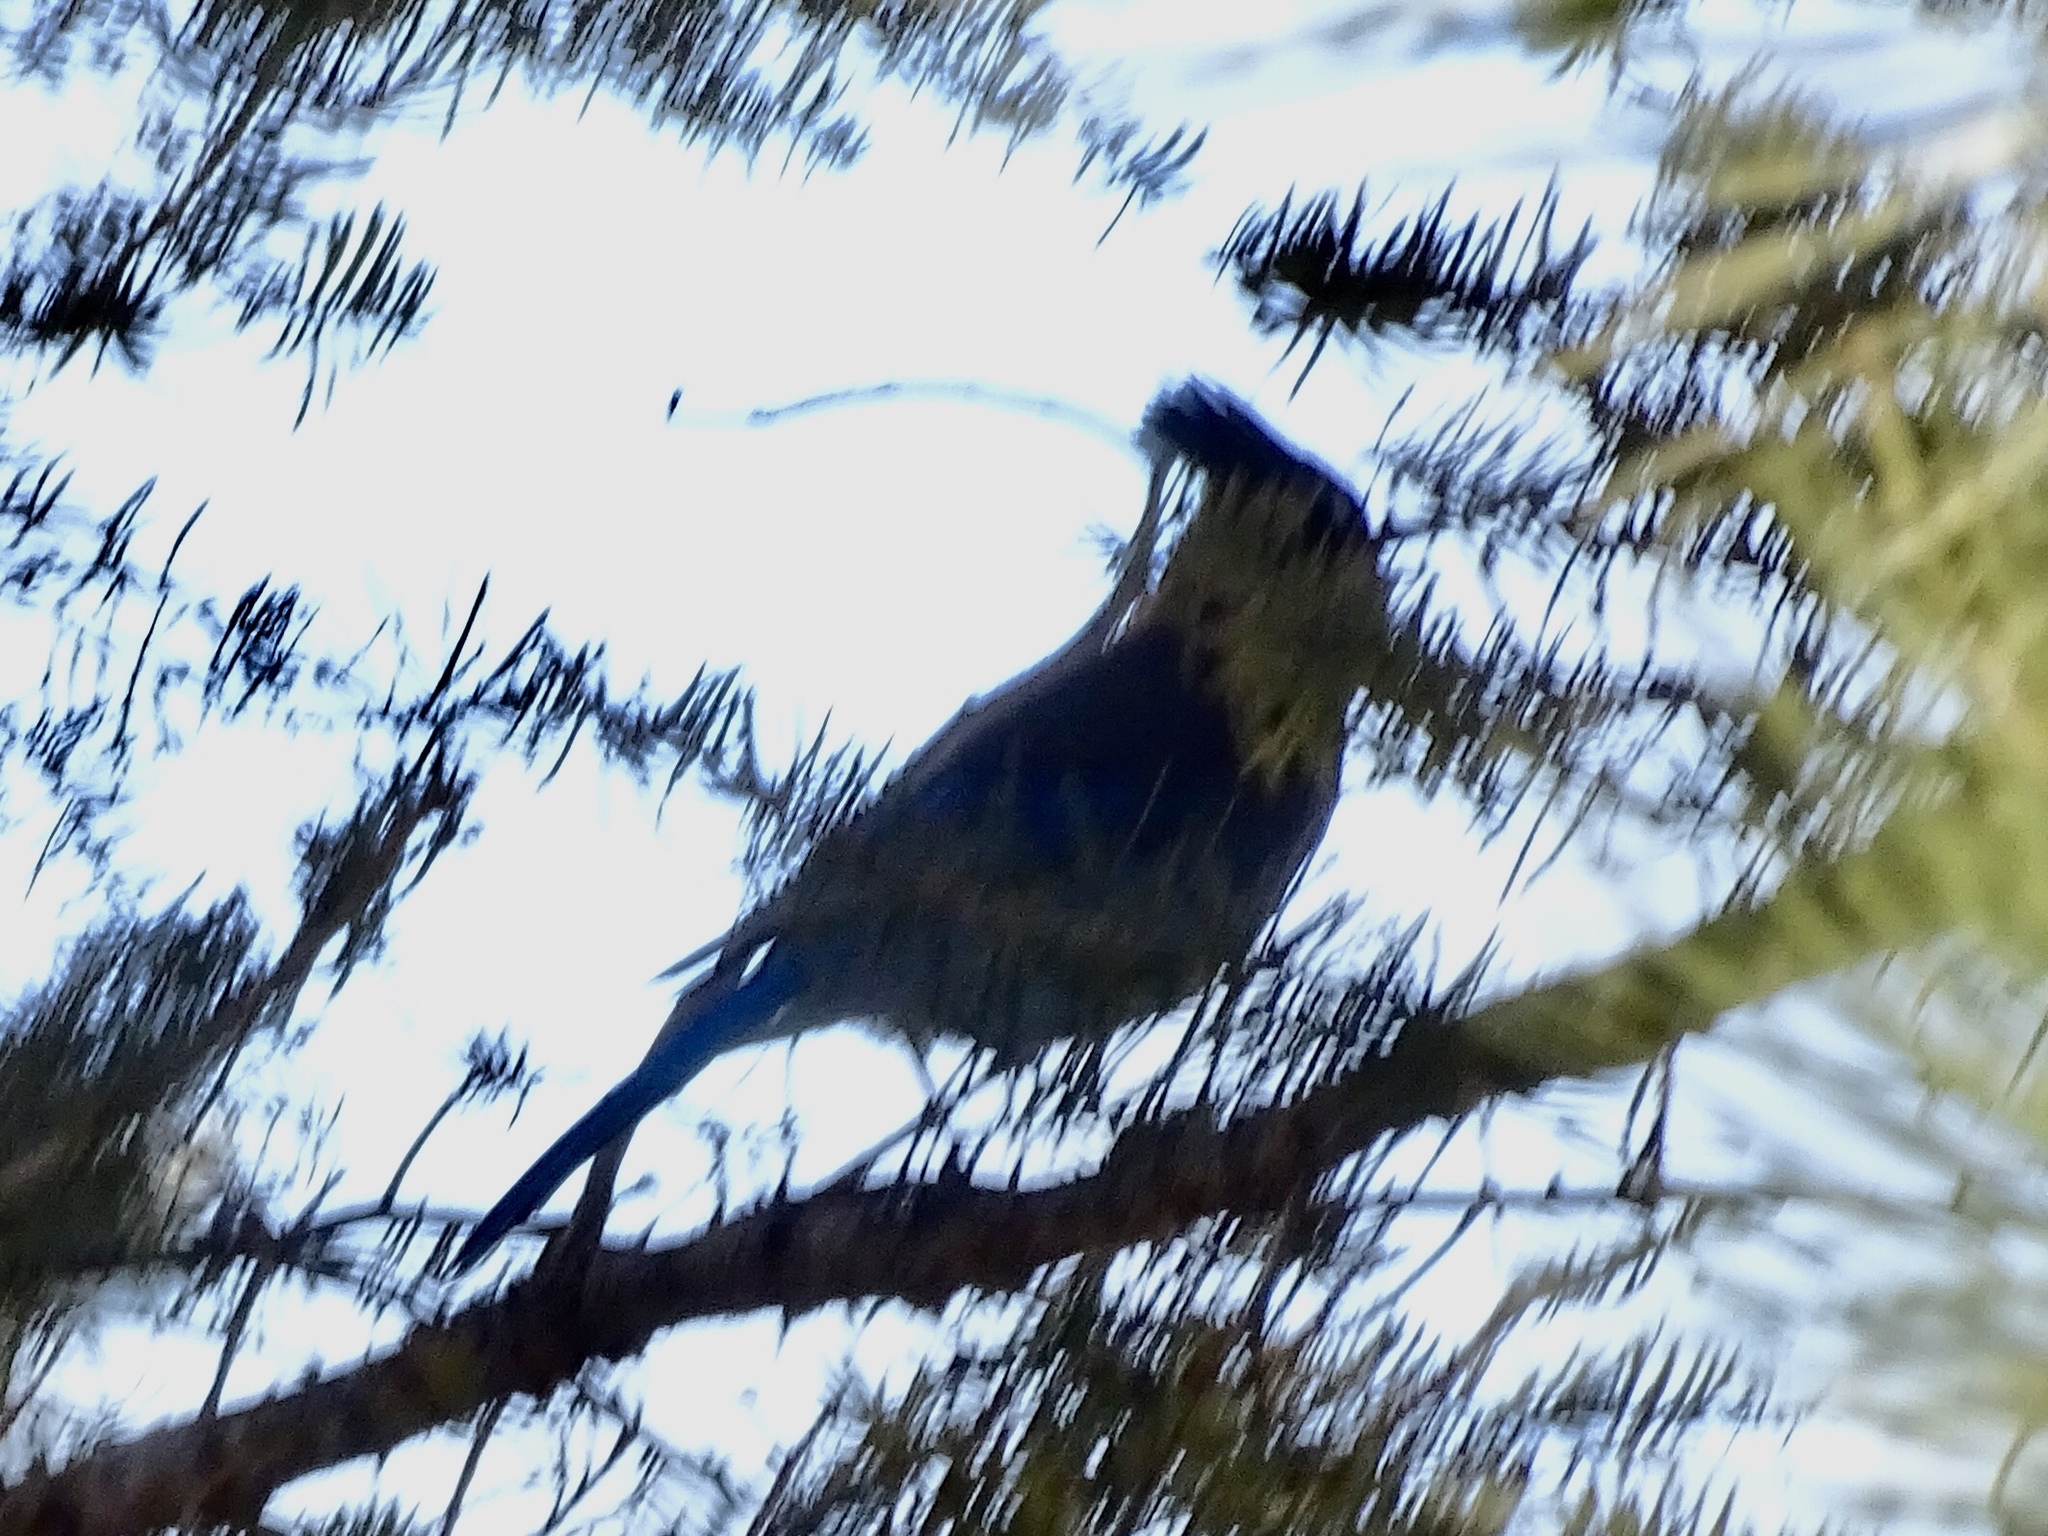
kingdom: Animalia
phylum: Chordata
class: Aves
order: Passeriformes
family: Corvidae
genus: Cyanocitta
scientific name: Cyanocitta stelleri
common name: Steller's jay
